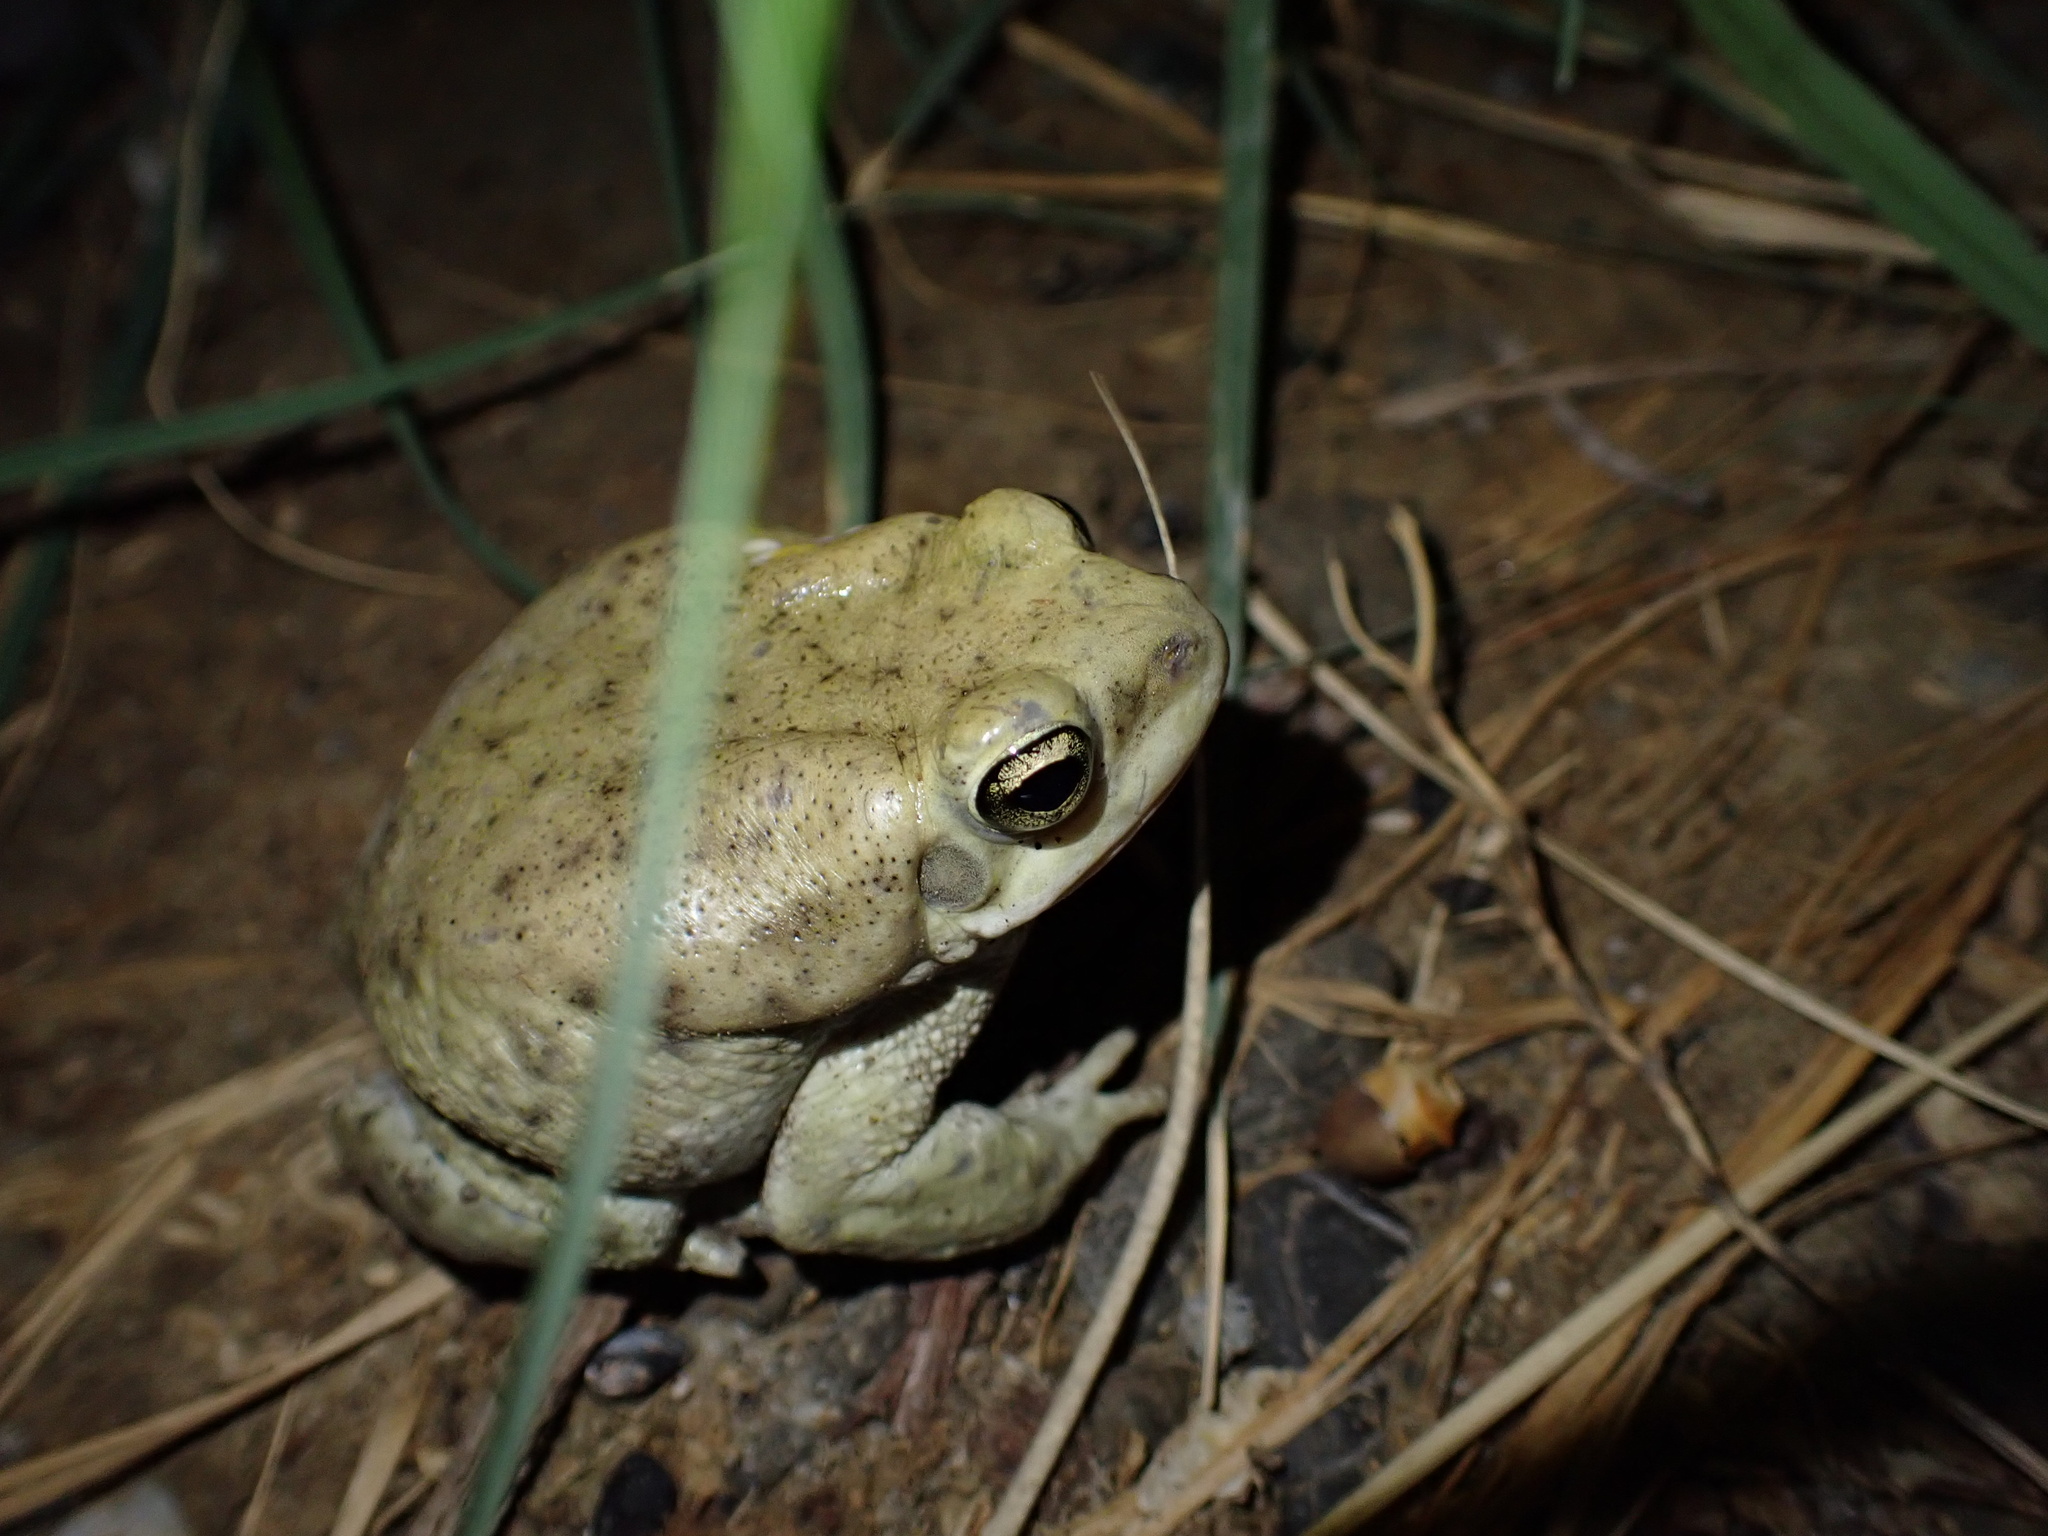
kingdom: Animalia
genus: Firouzophrynus
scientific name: Firouzophrynus
